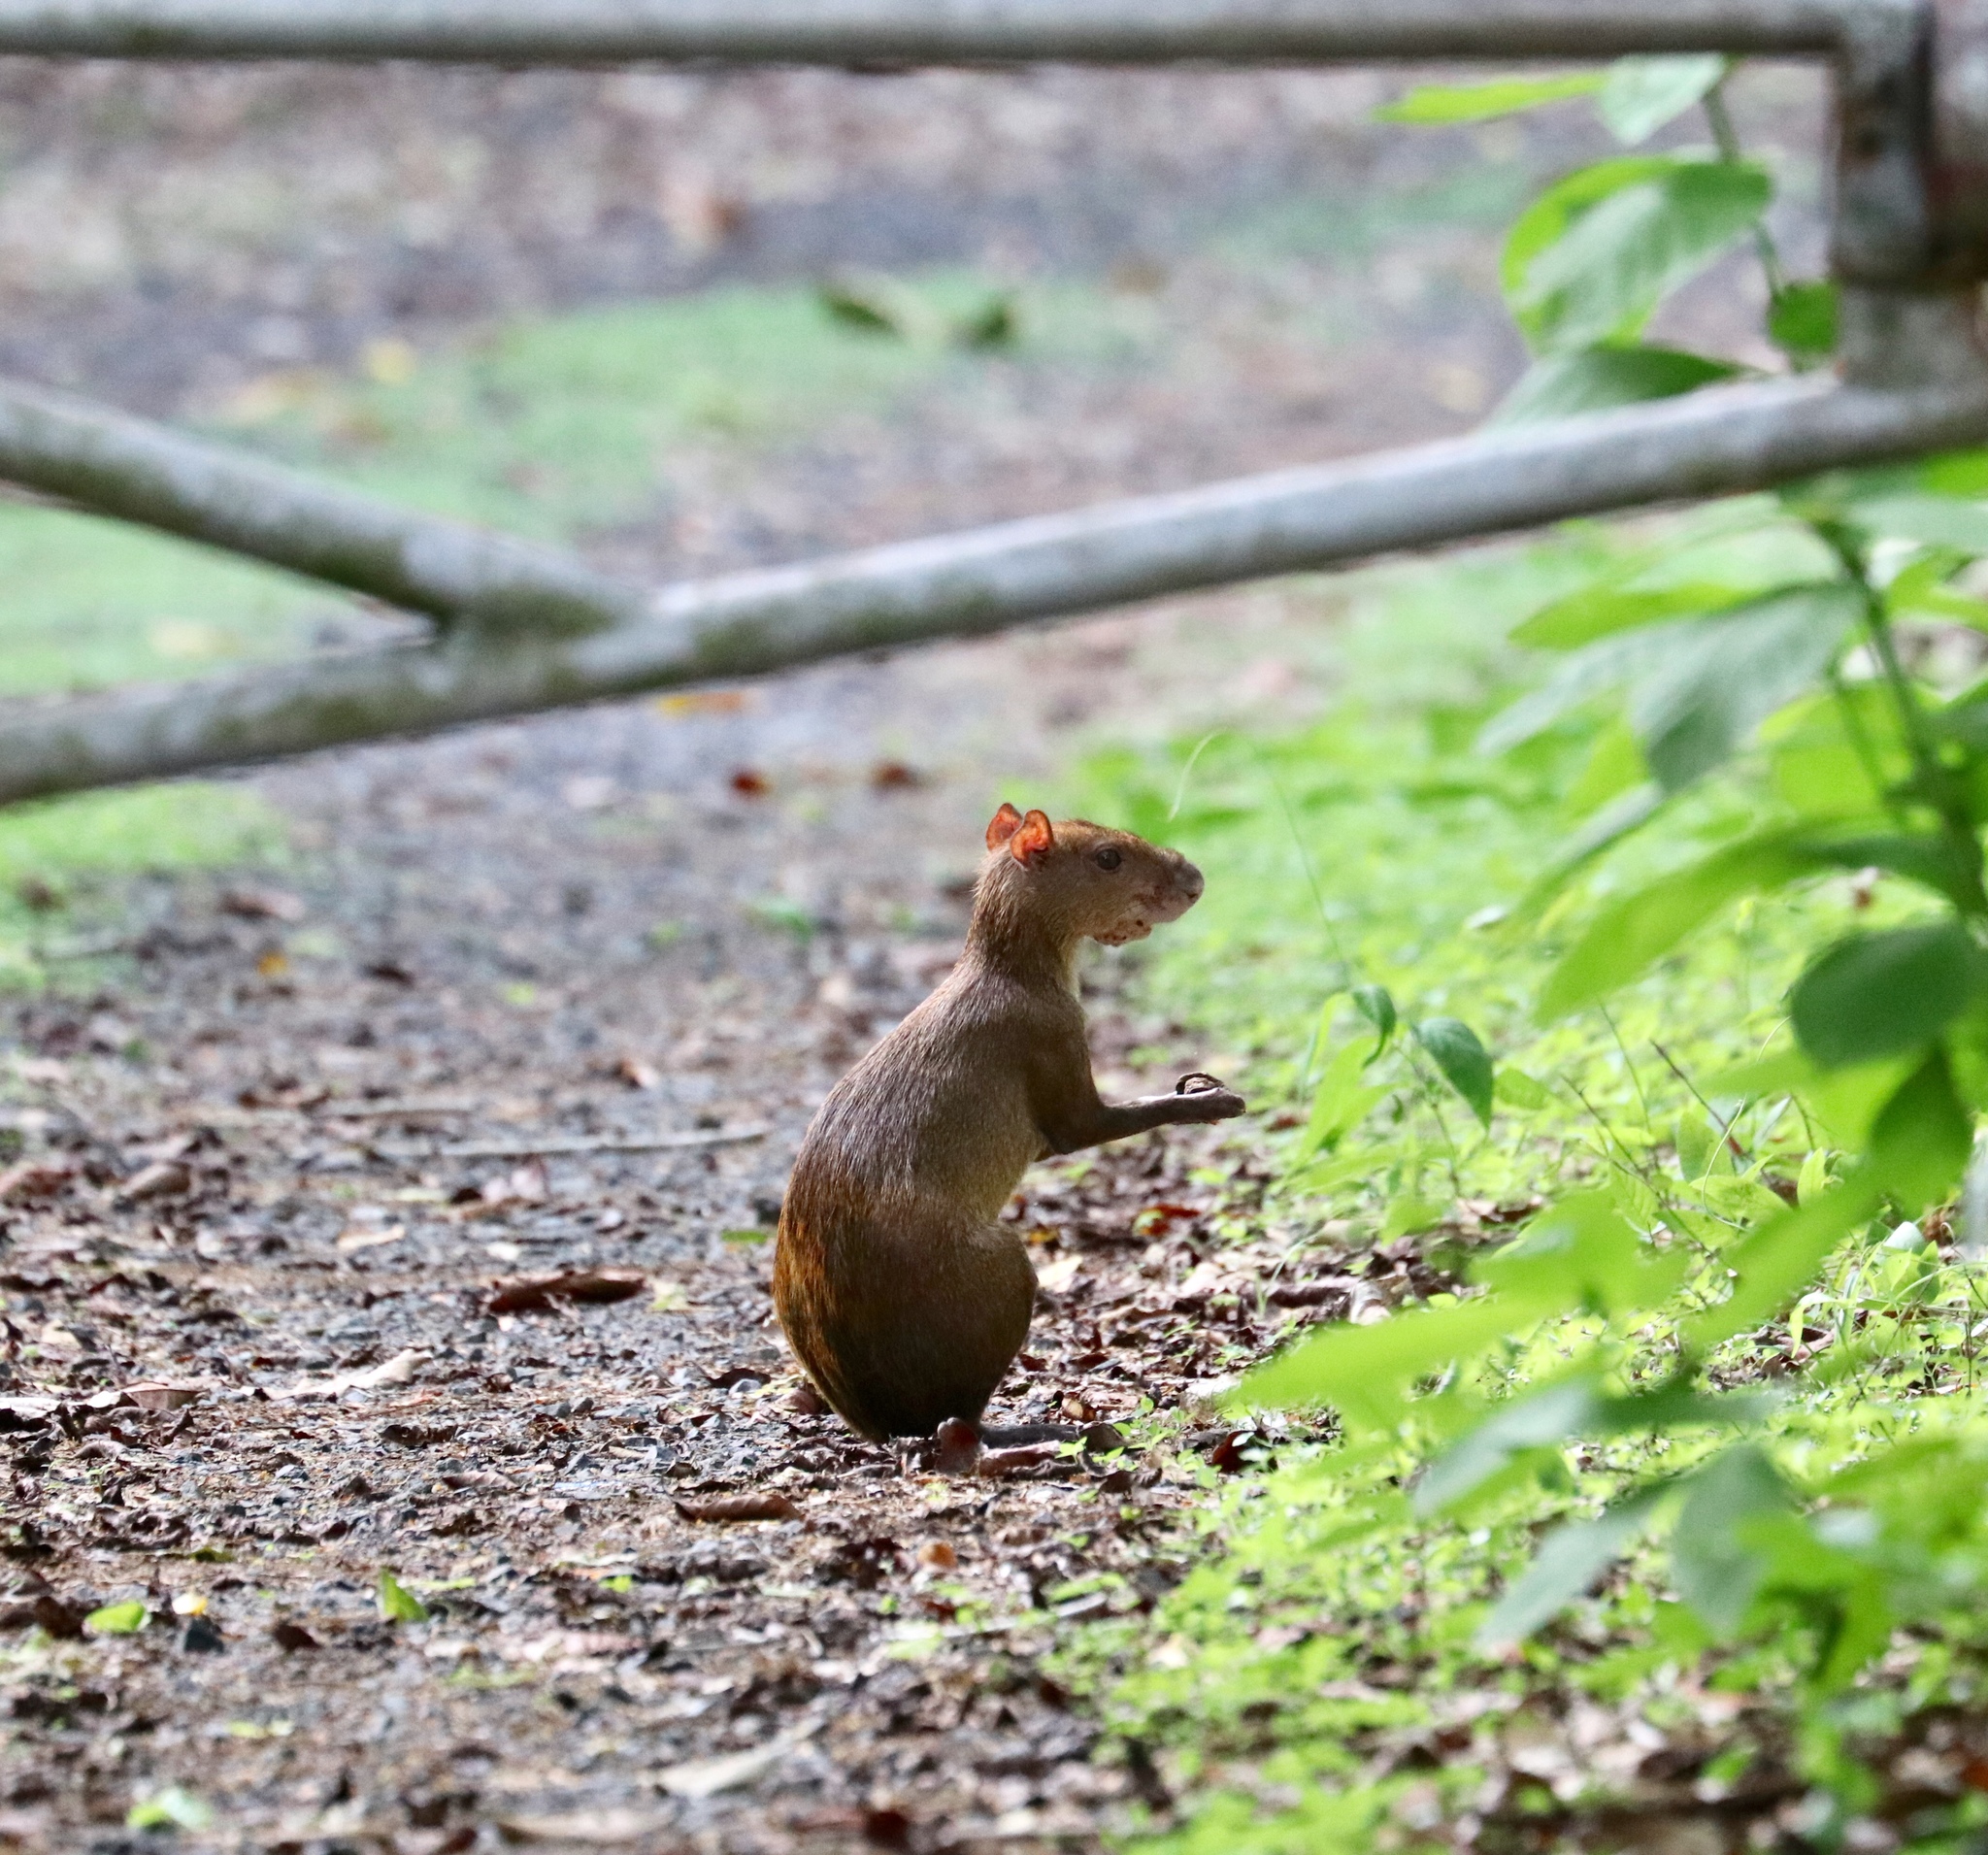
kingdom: Animalia
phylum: Chordata
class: Mammalia
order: Rodentia
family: Dasyproctidae
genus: Dasyprocta
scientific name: Dasyprocta punctata
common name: Central american agouti
